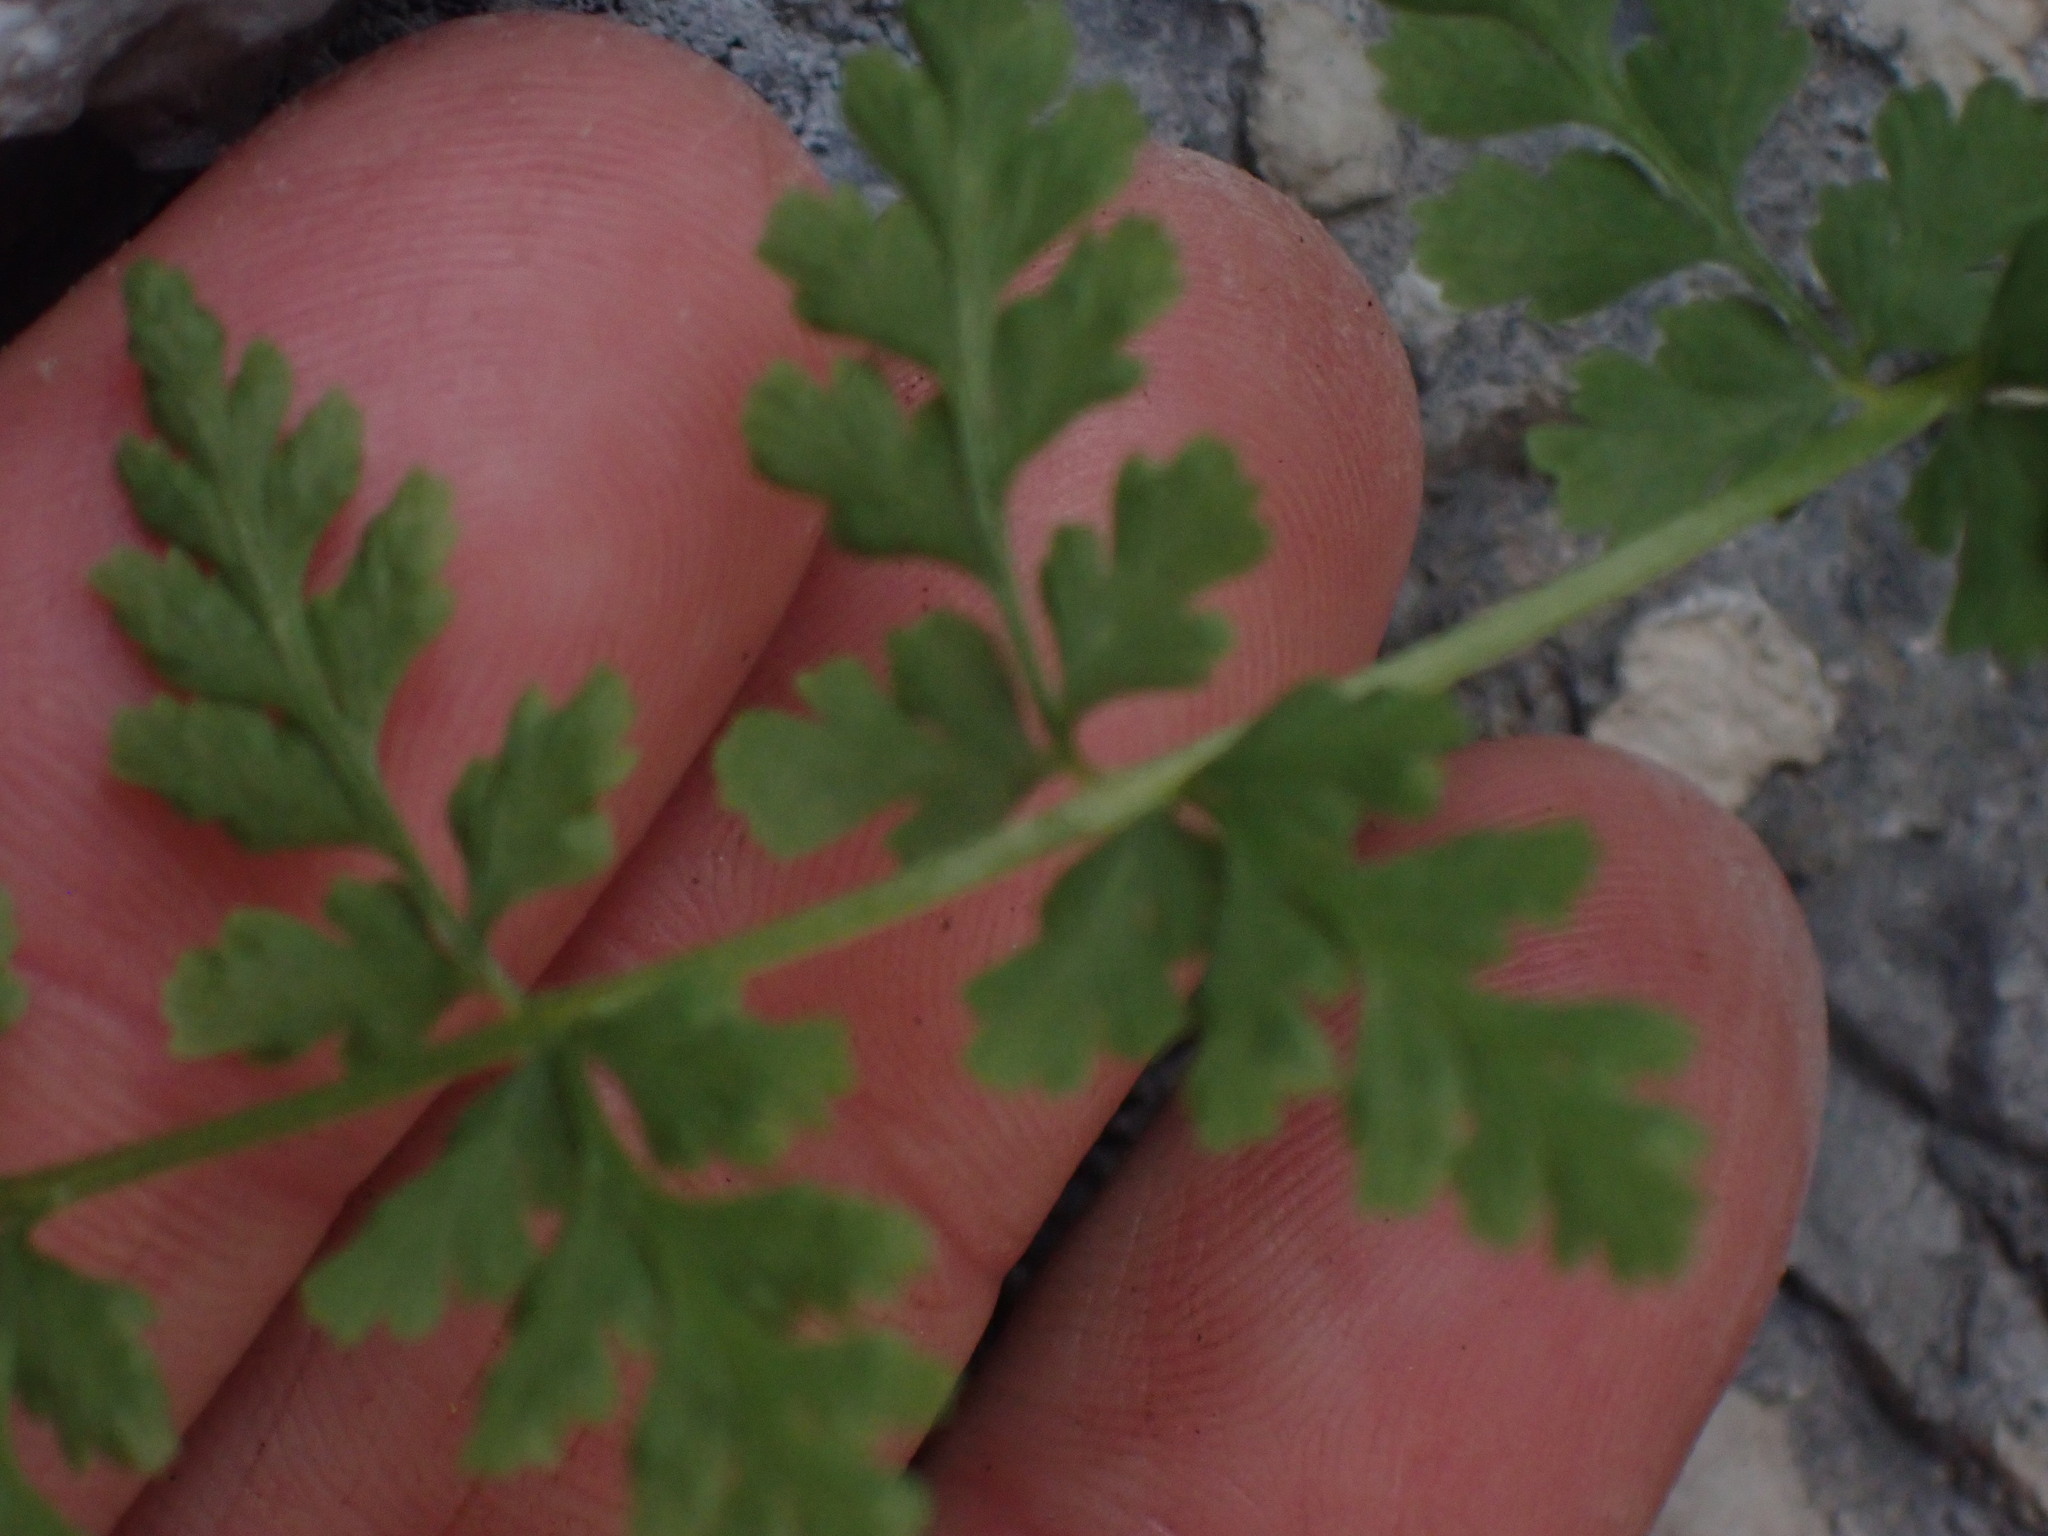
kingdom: Plantae
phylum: Tracheophyta
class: Polypodiopsida
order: Polypodiales
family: Cystopteridaceae
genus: Cystopteris
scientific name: Cystopteris fragilis
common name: Brittle bladder fern
